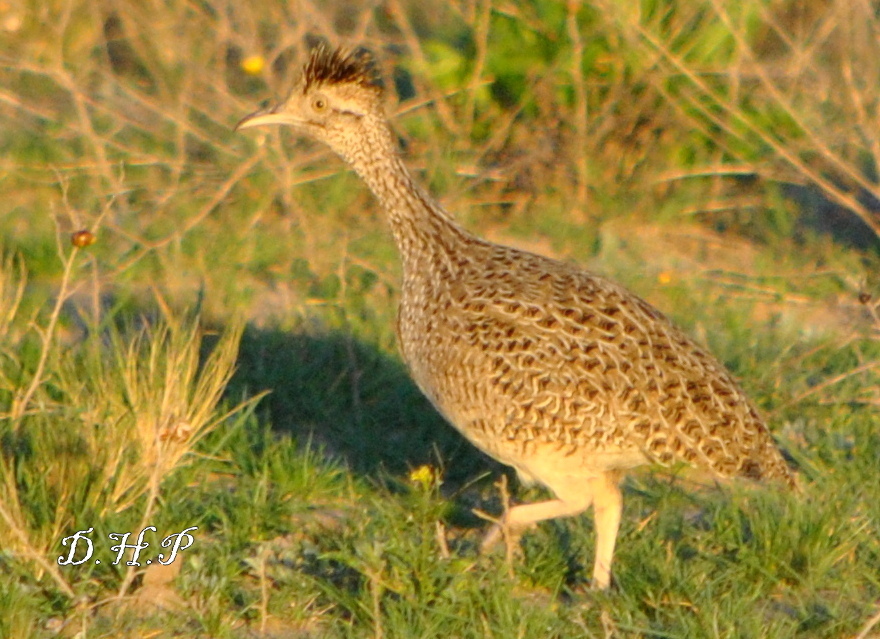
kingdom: Animalia
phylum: Chordata
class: Aves
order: Tinamiformes
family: Tinamidae
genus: Nothoprocta
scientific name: Nothoprocta cinerascens
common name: Brushland tinamou
